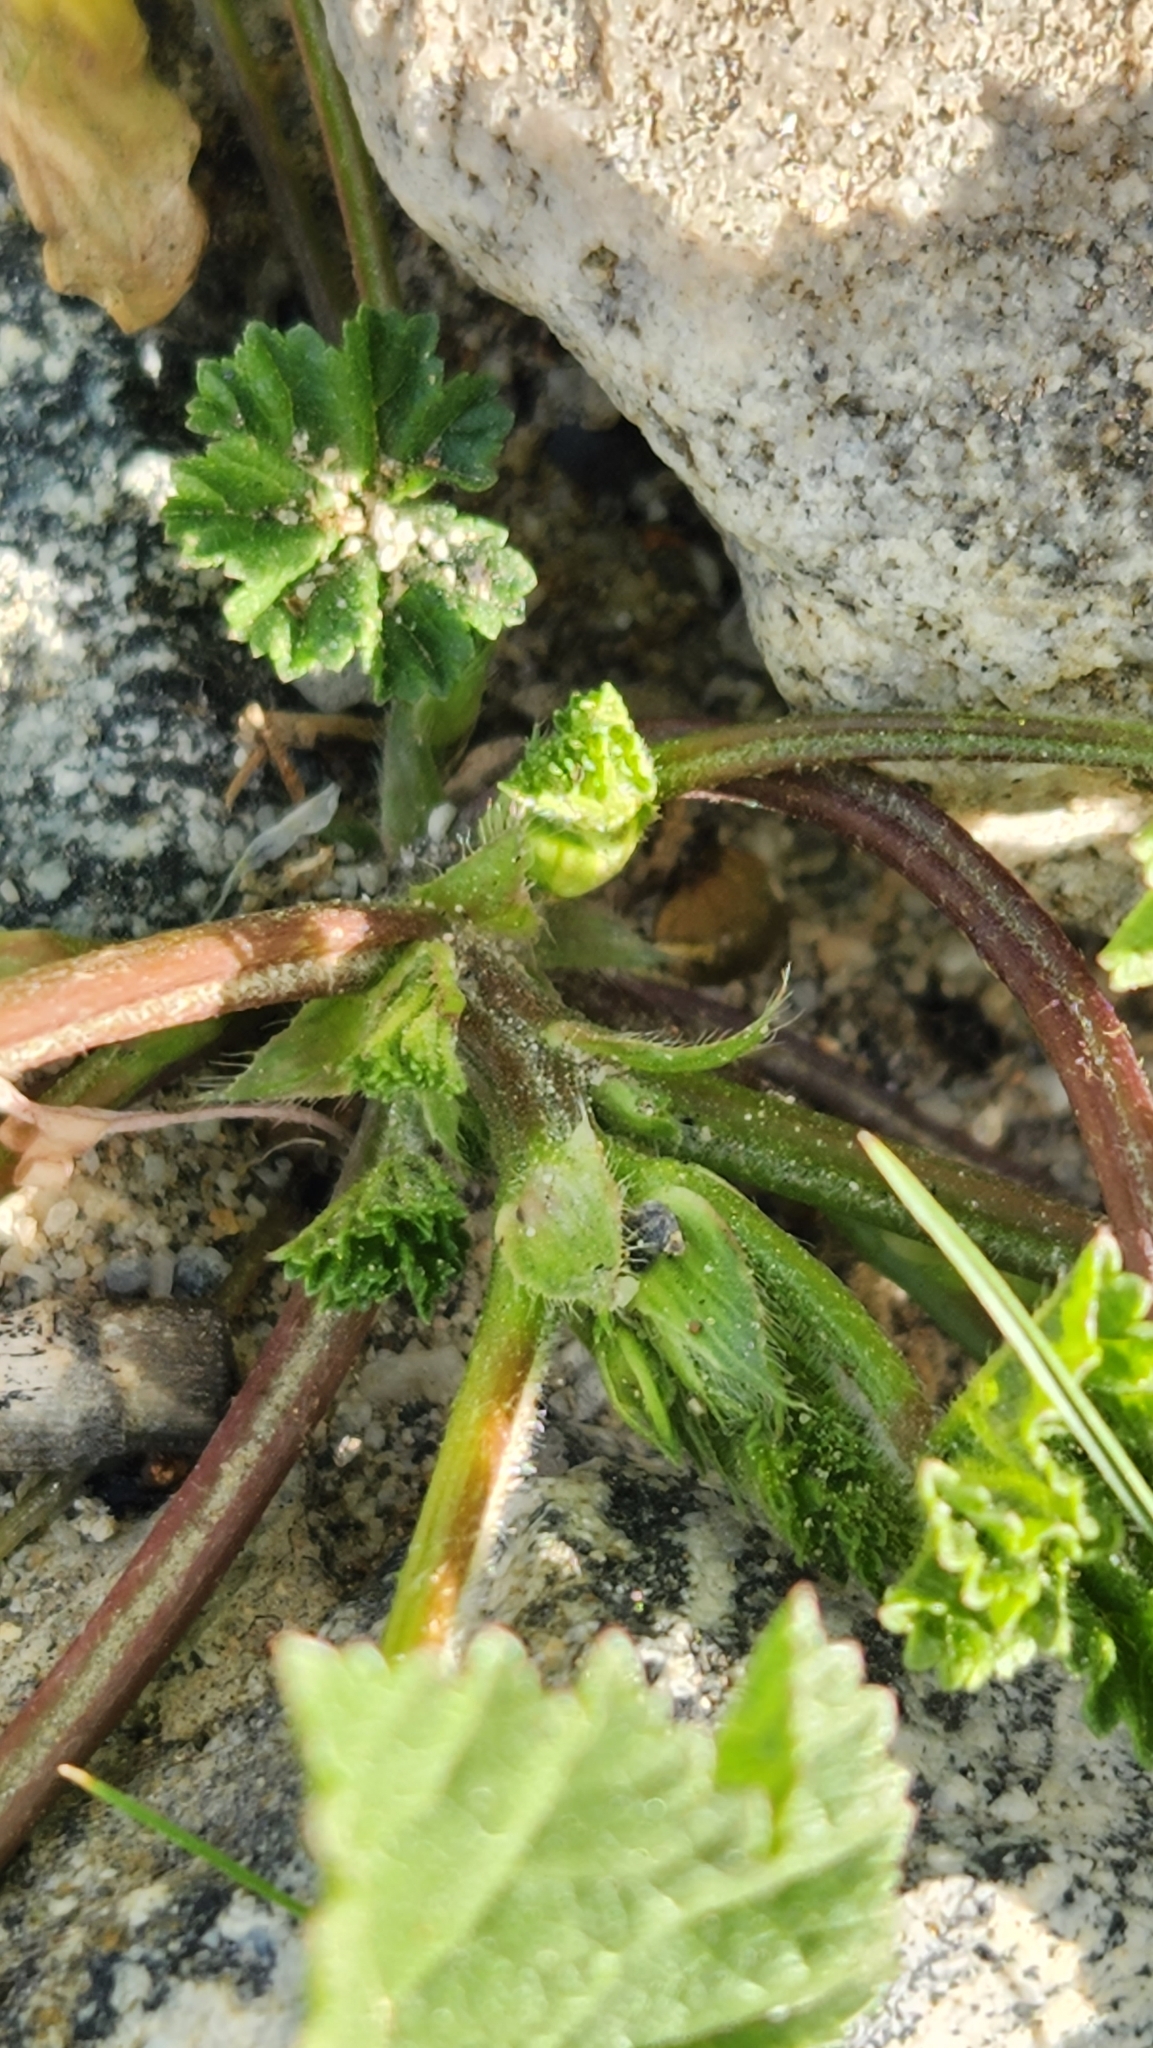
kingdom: Plantae
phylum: Tracheophyta
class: Magnoliopsida
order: Malvales
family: Malvaceae
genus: Malva
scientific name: Malva
